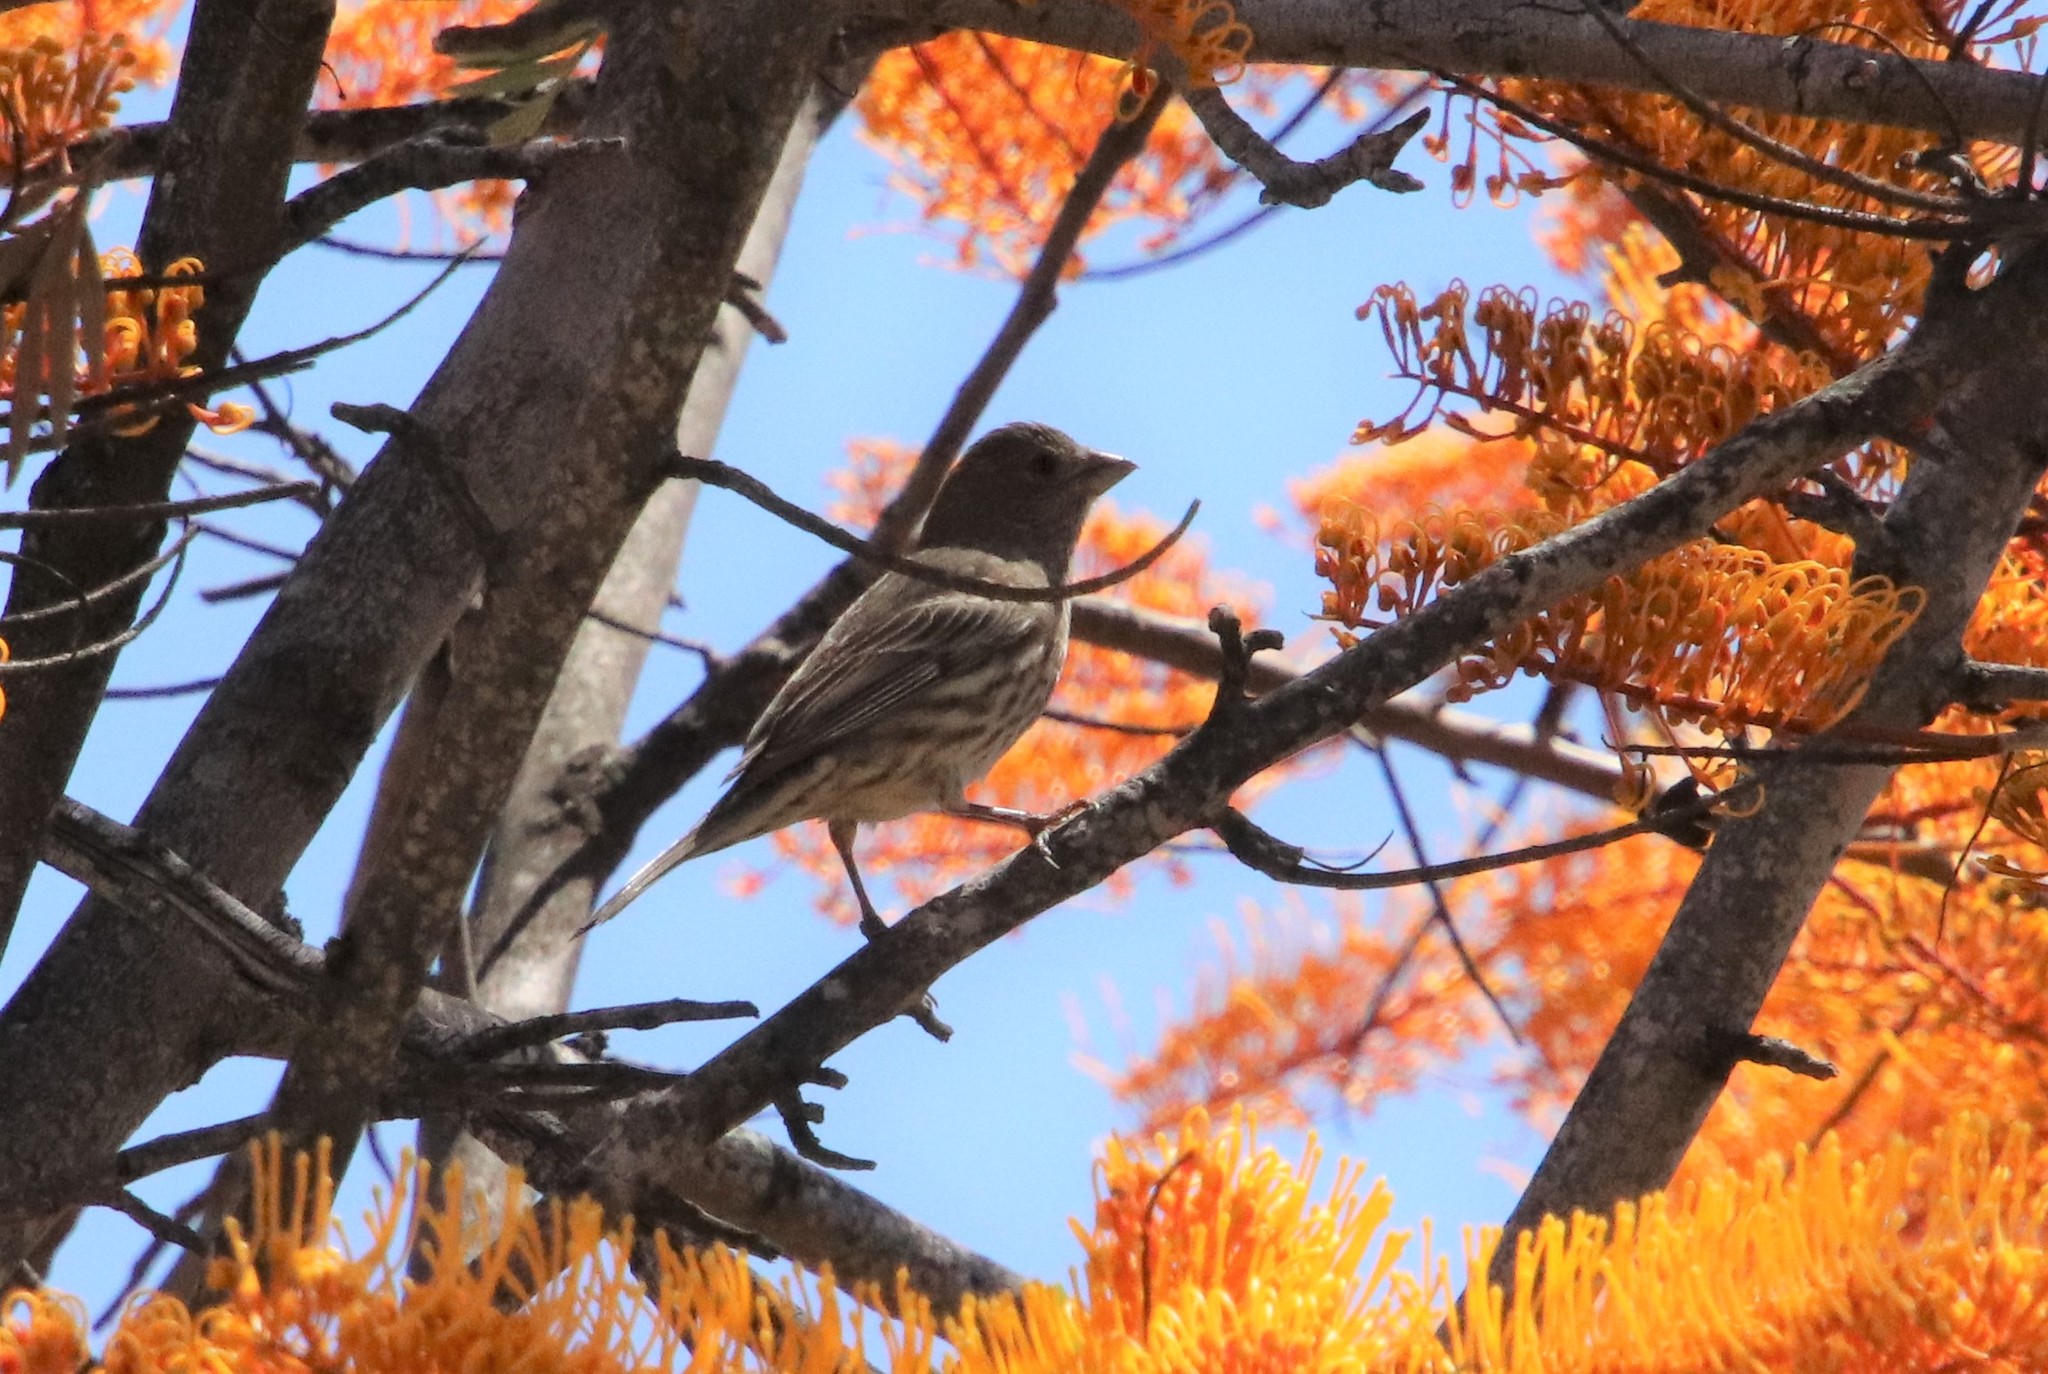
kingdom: Animalia
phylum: Chordata
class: Aves
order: Passeriformes
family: Fringillidae
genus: Haemorhous
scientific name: Haemorhous mexicanus
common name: House finch
